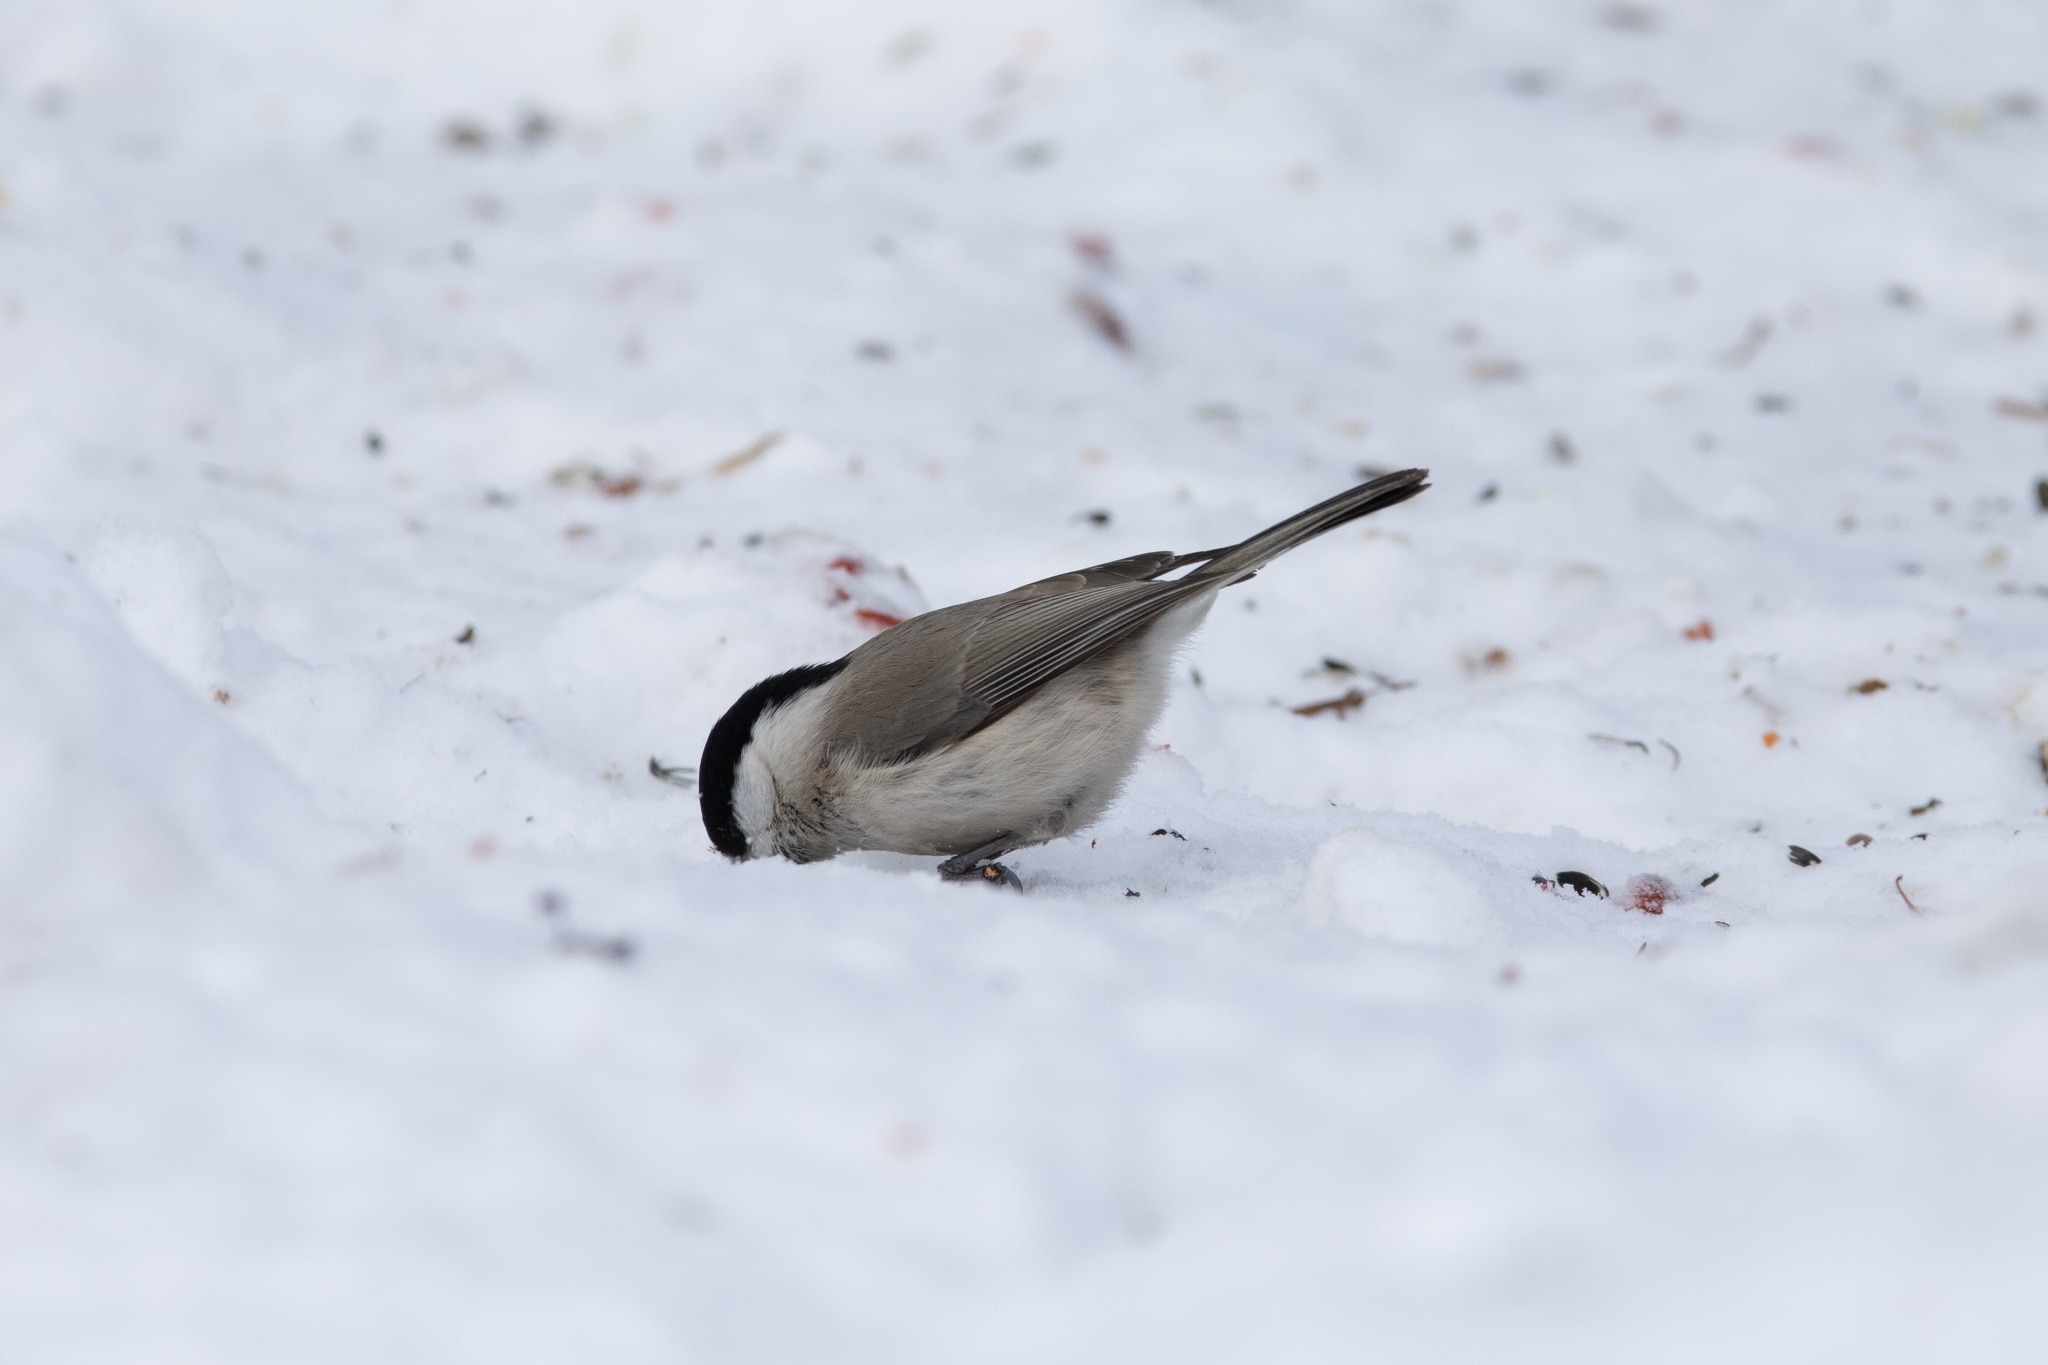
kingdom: Animalia
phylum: Chordata
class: Aves
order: Passeriformes
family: Paridae
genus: Poecile
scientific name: Poecile palustris
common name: Marsh tit
